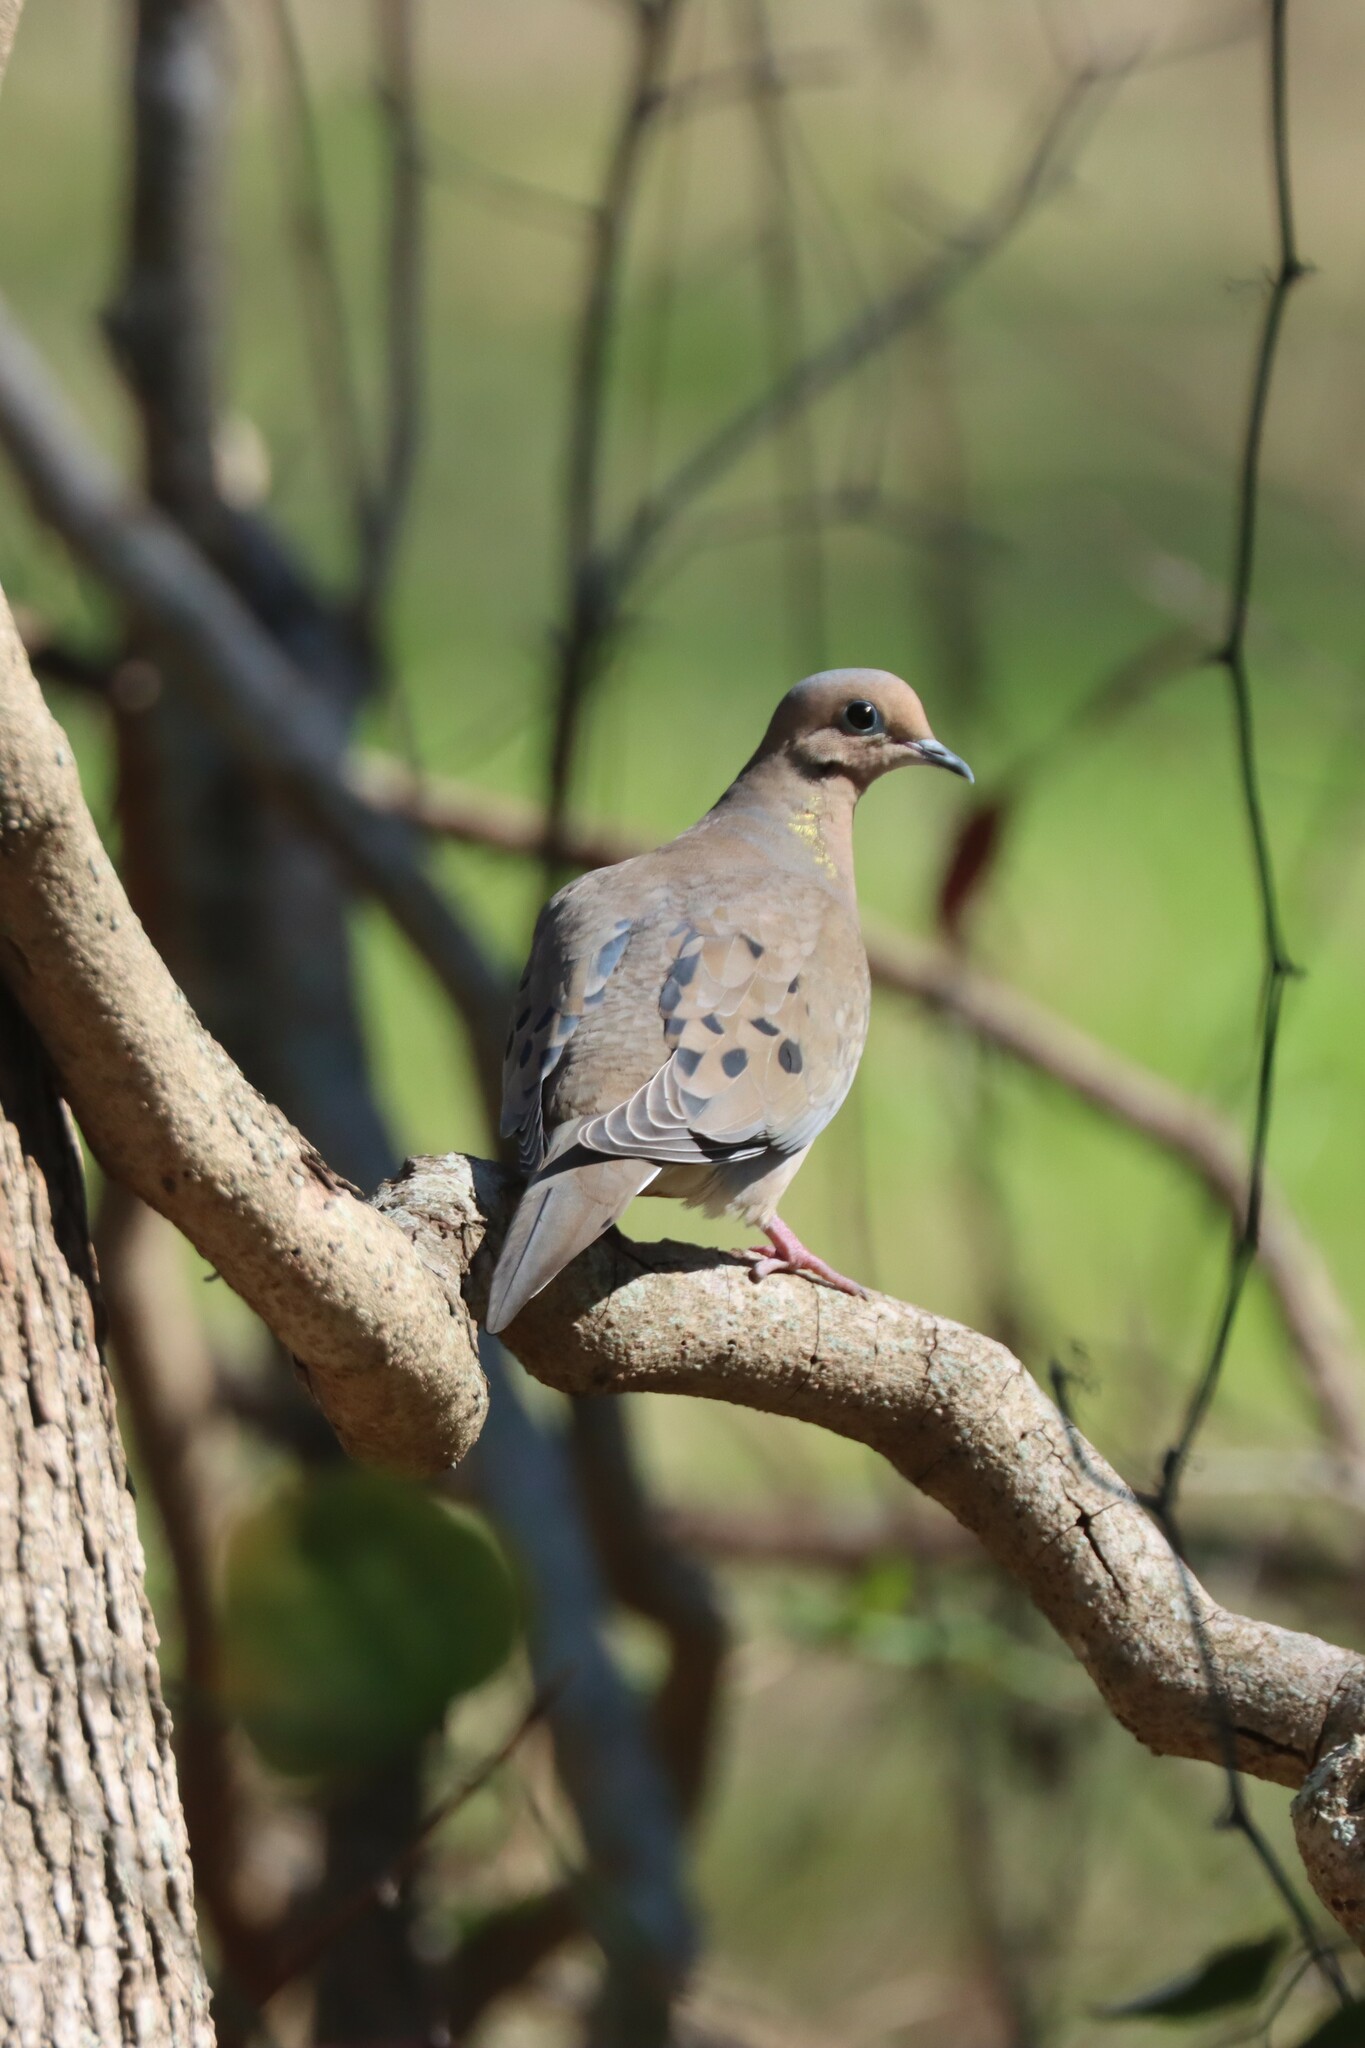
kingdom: Animalia
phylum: Chordata
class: Aves
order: Columbiformes
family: Columbidae
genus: Zenaida
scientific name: Zenaida macroura
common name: Mourning dove
